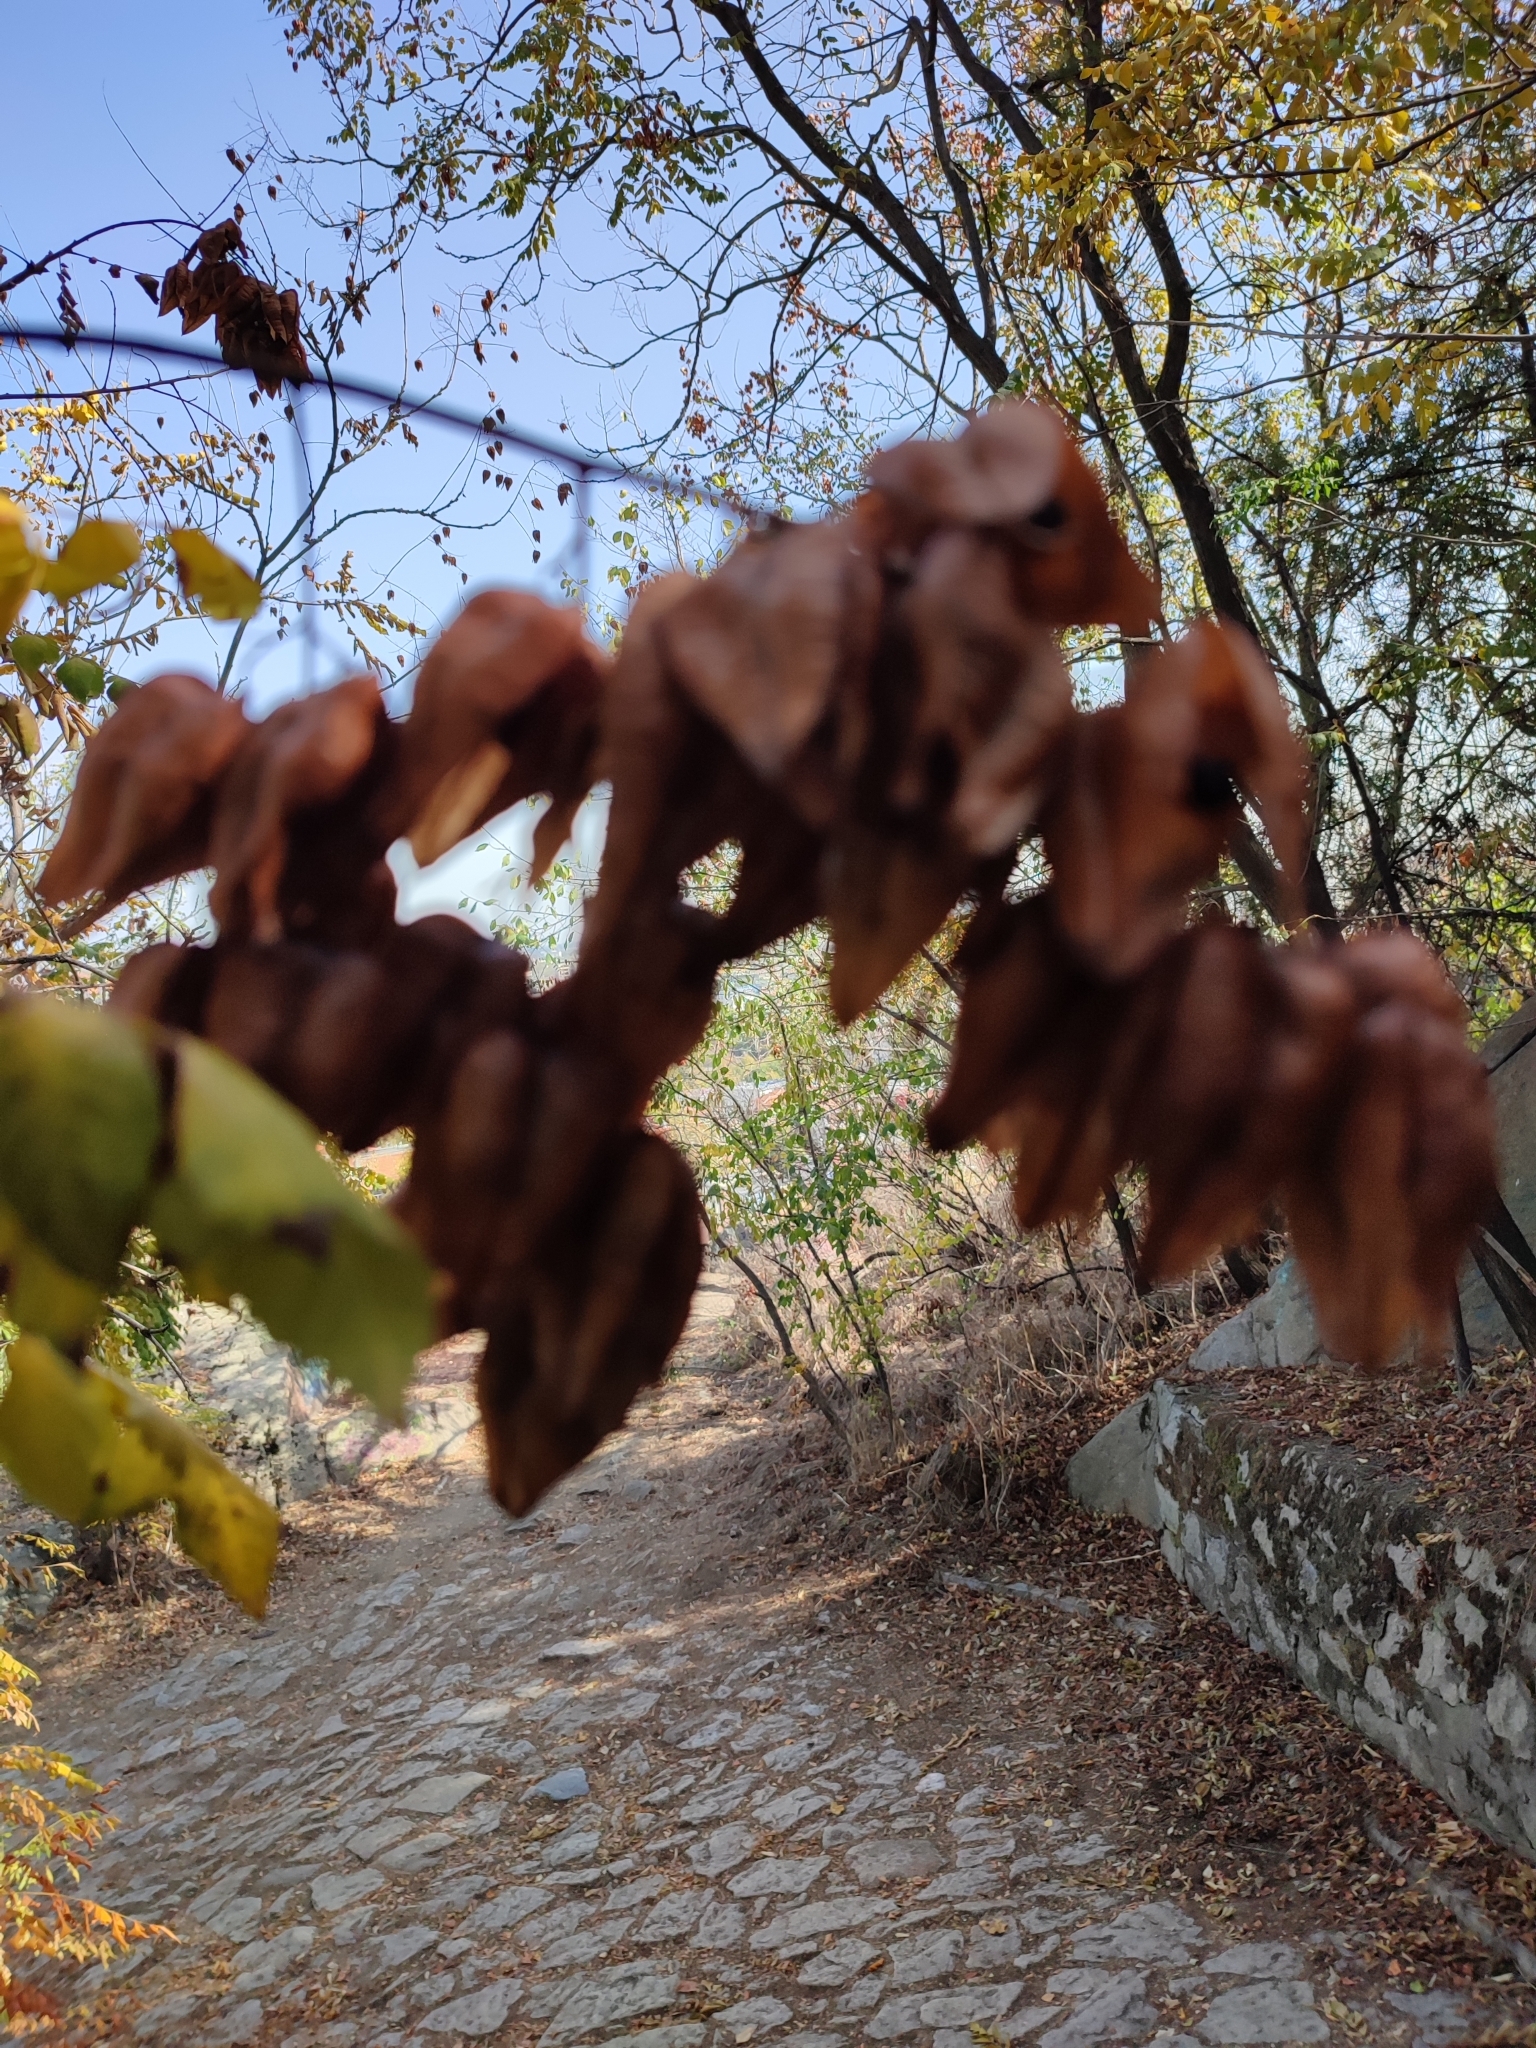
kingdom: Plantae
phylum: Tracheophyta
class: Magnoliopsida
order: Sapindales
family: Sapindaceae
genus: Koelreuteria
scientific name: Koelreuteria paniculata
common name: Pride-of-india
